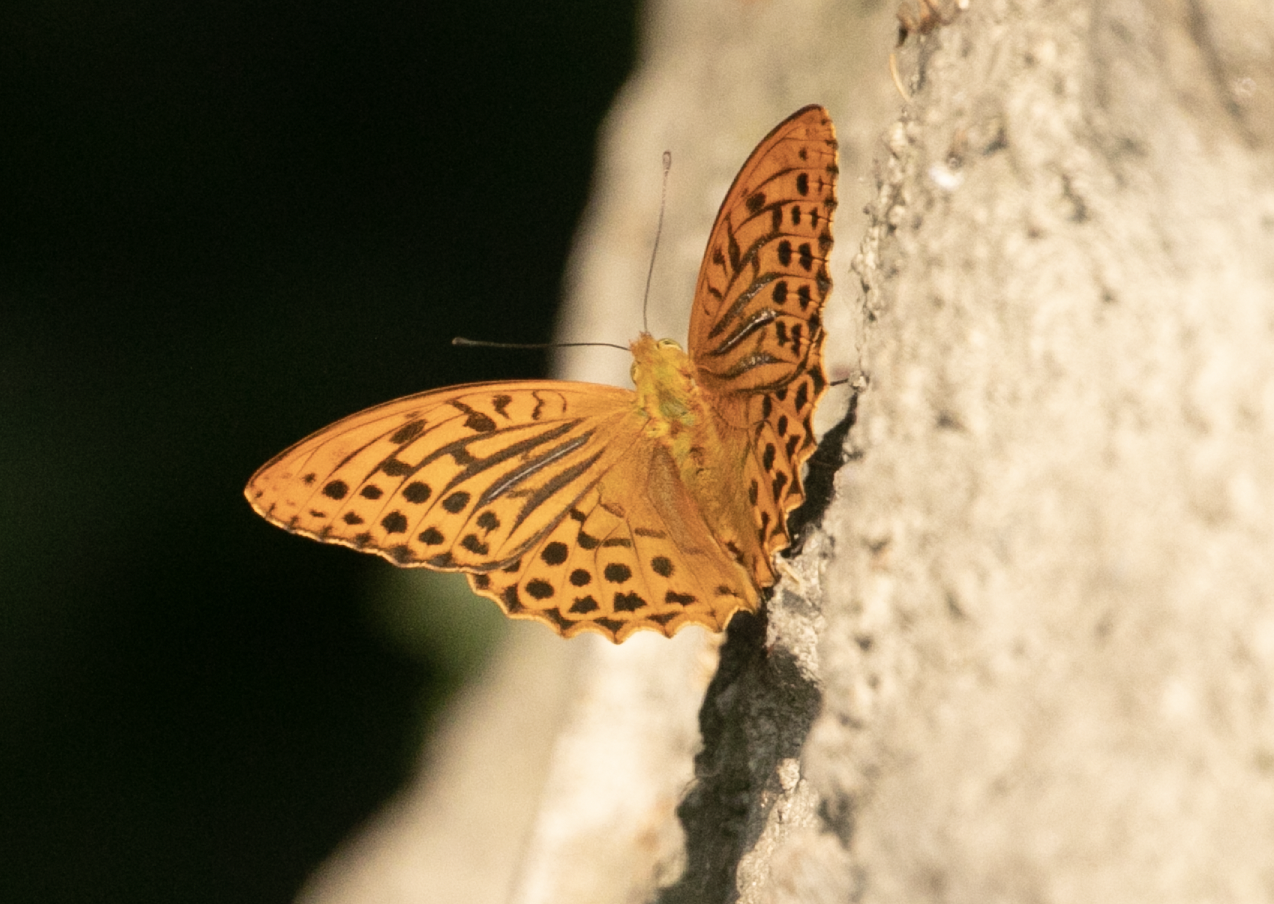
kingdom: Animalia
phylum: Arthropoda
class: Insecta
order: Lepidoptera
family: Nymphalidae
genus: Argynnis
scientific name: Argynnis paphia
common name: Silver-washed fritillary
